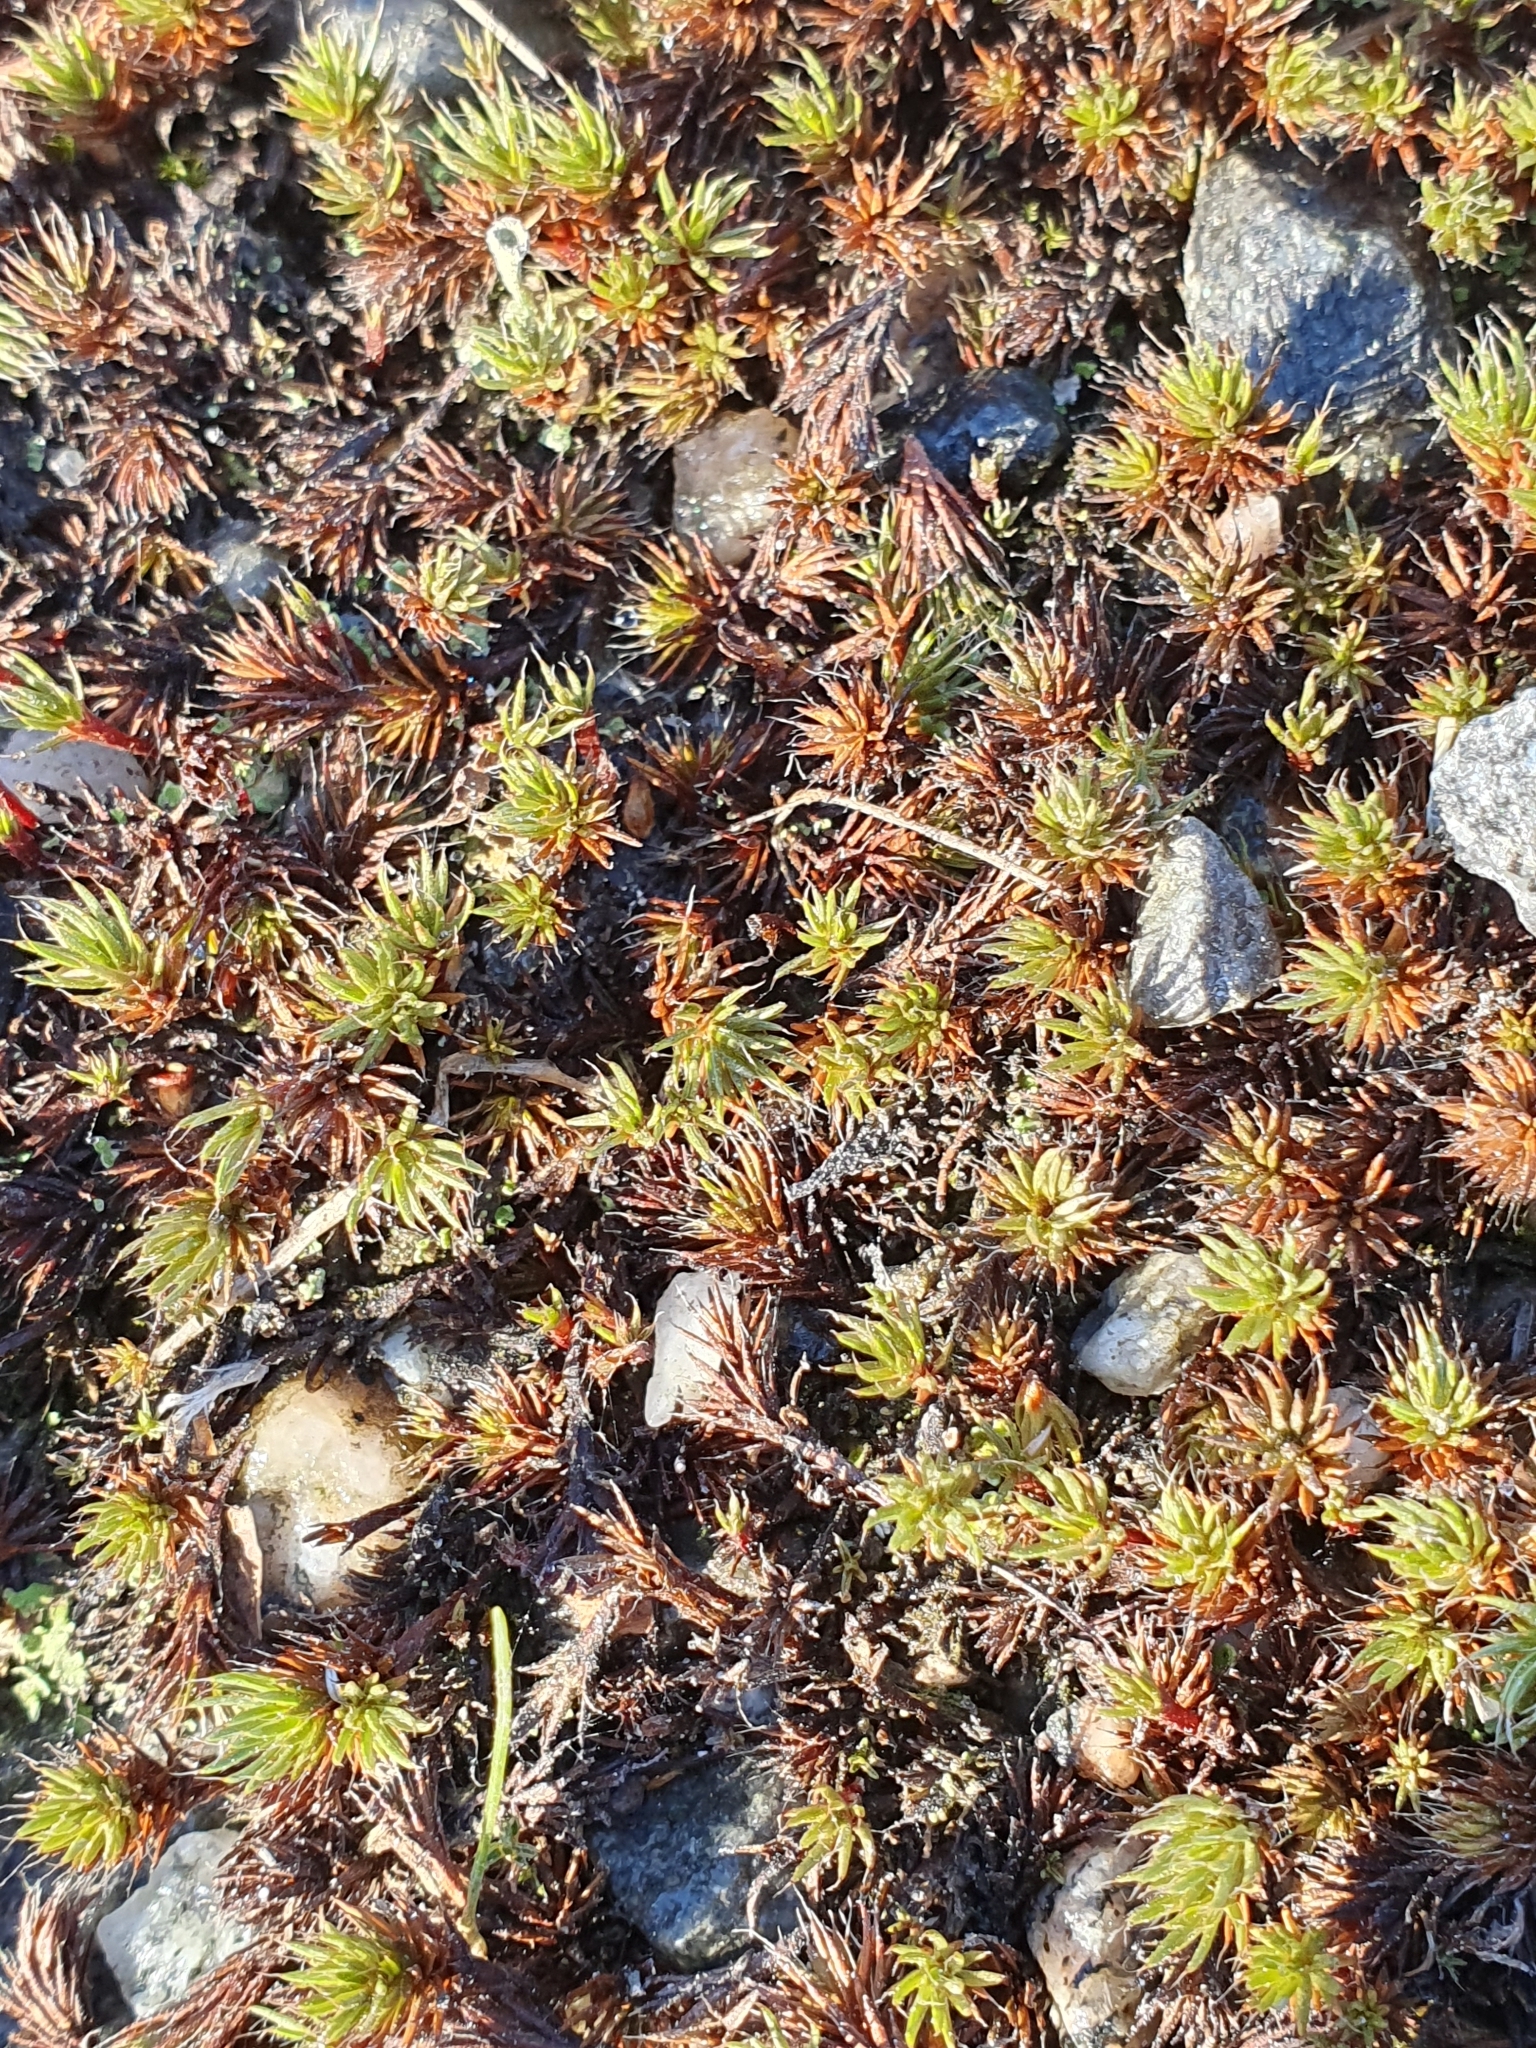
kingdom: Plantae
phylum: Bryophyta
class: Polytrichopsida
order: Polytrichales
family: Polytrichaceae
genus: Polytrichum
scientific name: Polytrichum piliferum
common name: Bristly haircap
